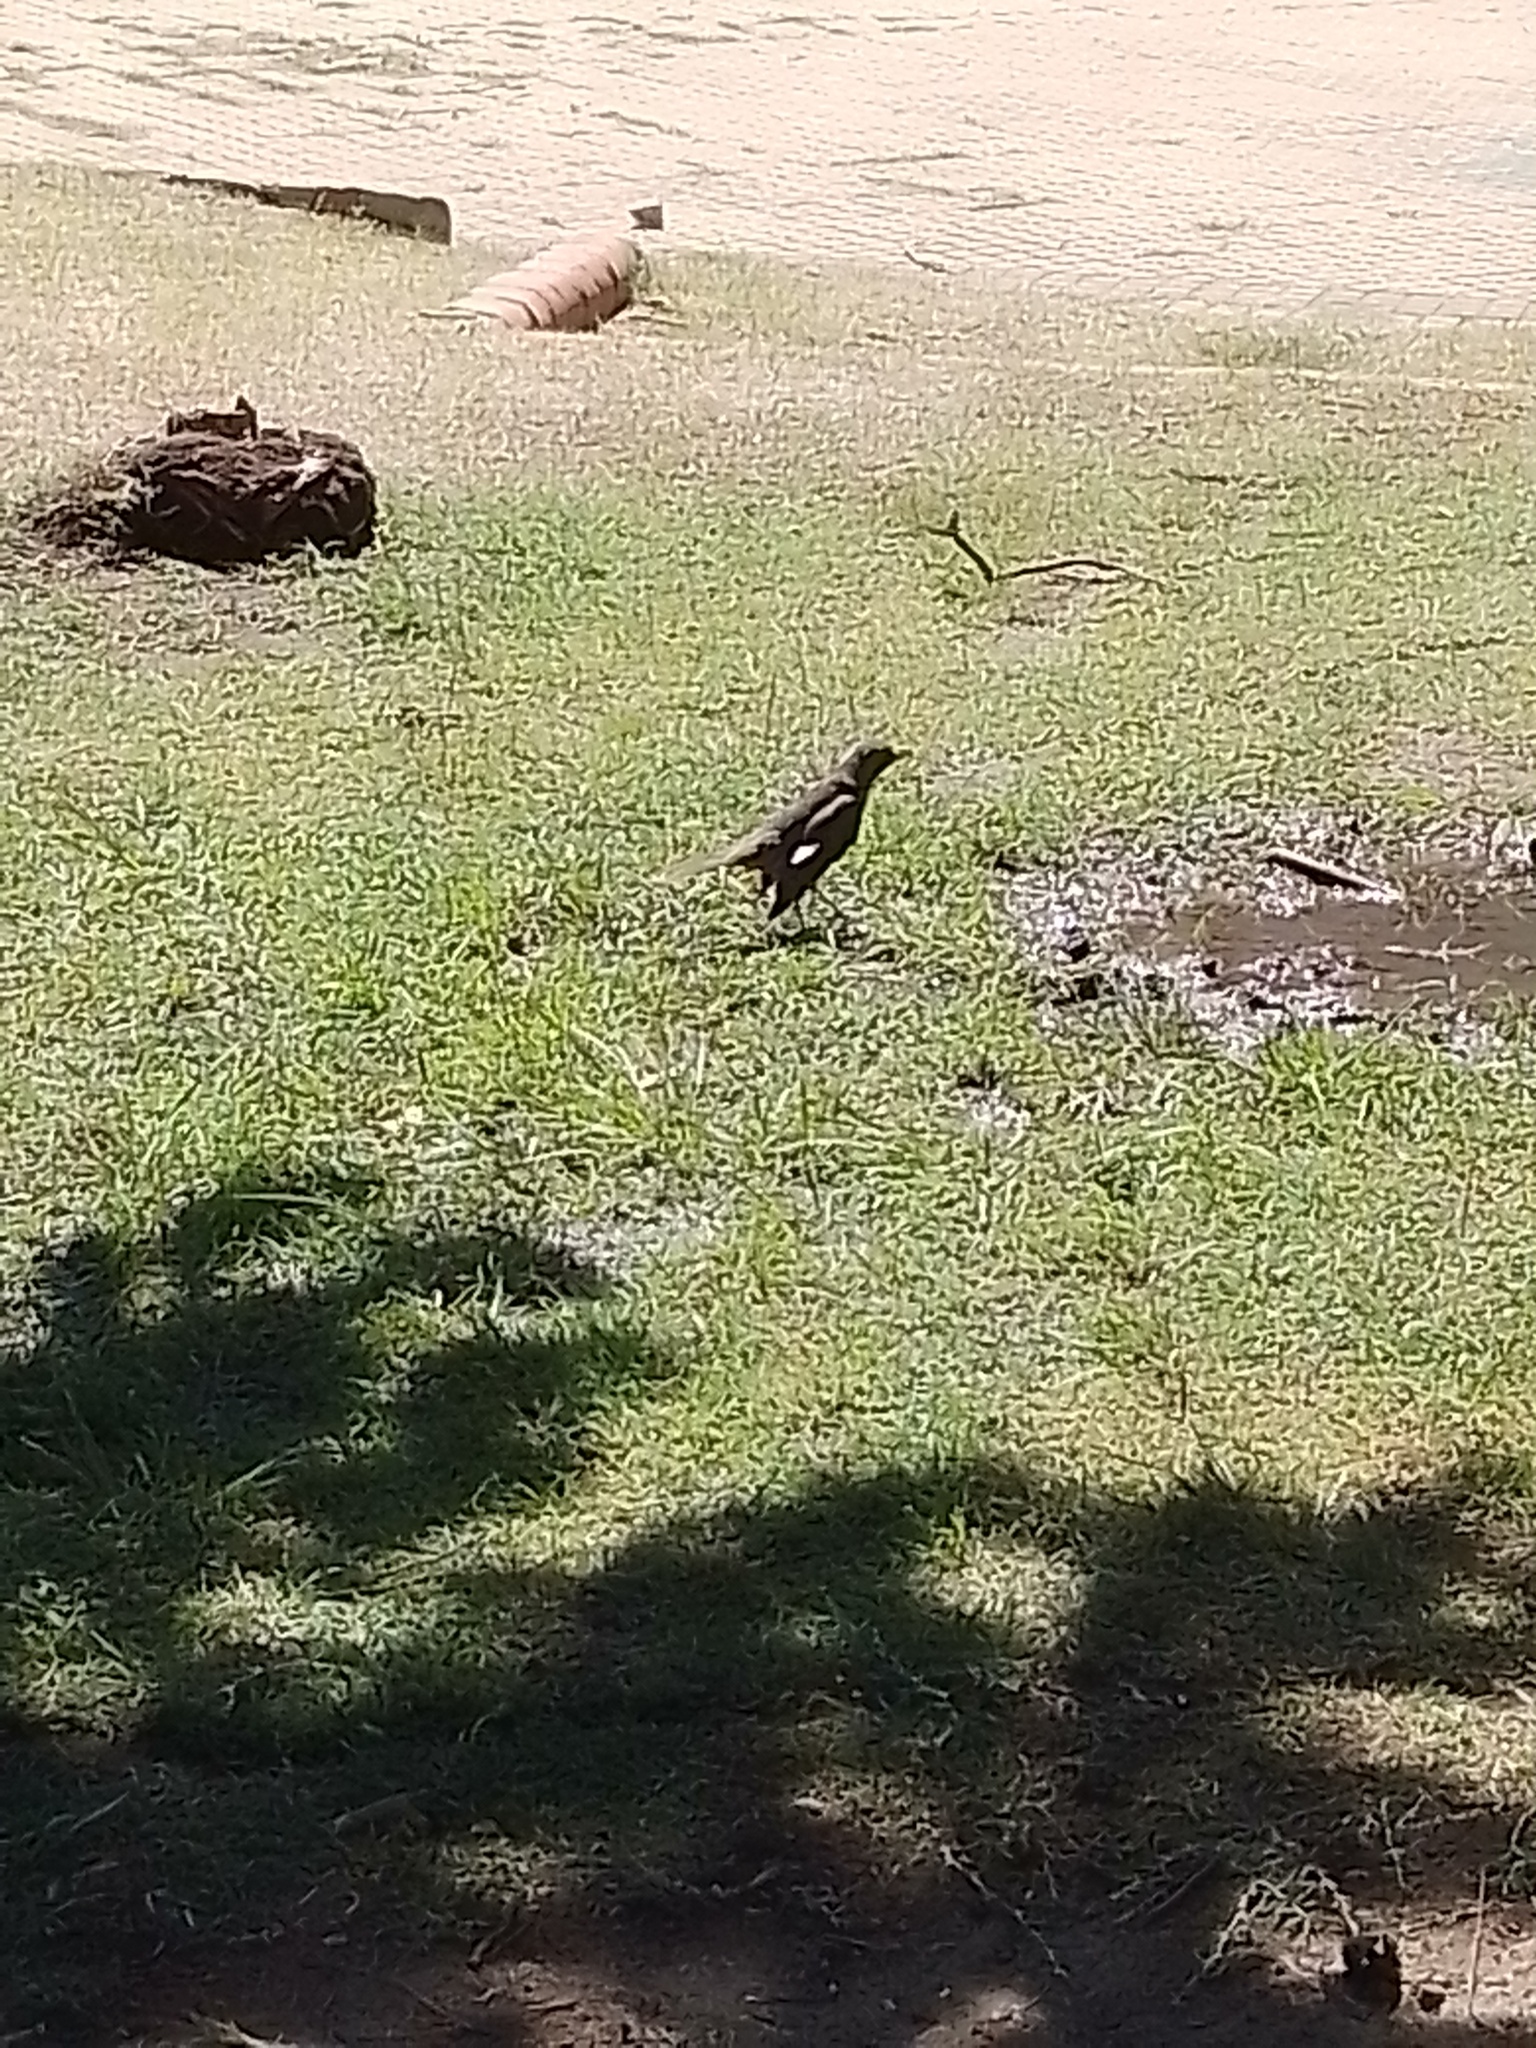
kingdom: Animalia
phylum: Chordata
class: Aves
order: Passeriformes
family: Turdidae
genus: Turdus
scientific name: Turdus rufiventris
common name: Rufous-bellied thrush
